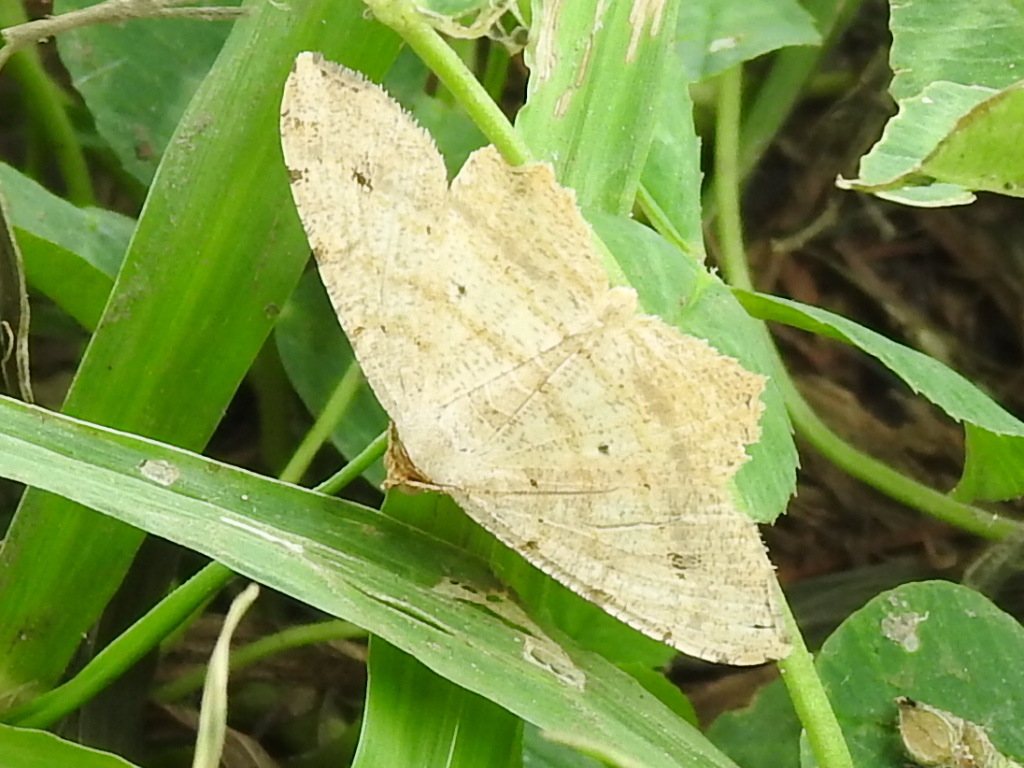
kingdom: Animalia
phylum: Arthropoda
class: Insecta
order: Lepidoptera
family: Geometridae
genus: Macaria
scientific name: Macaria abydata
